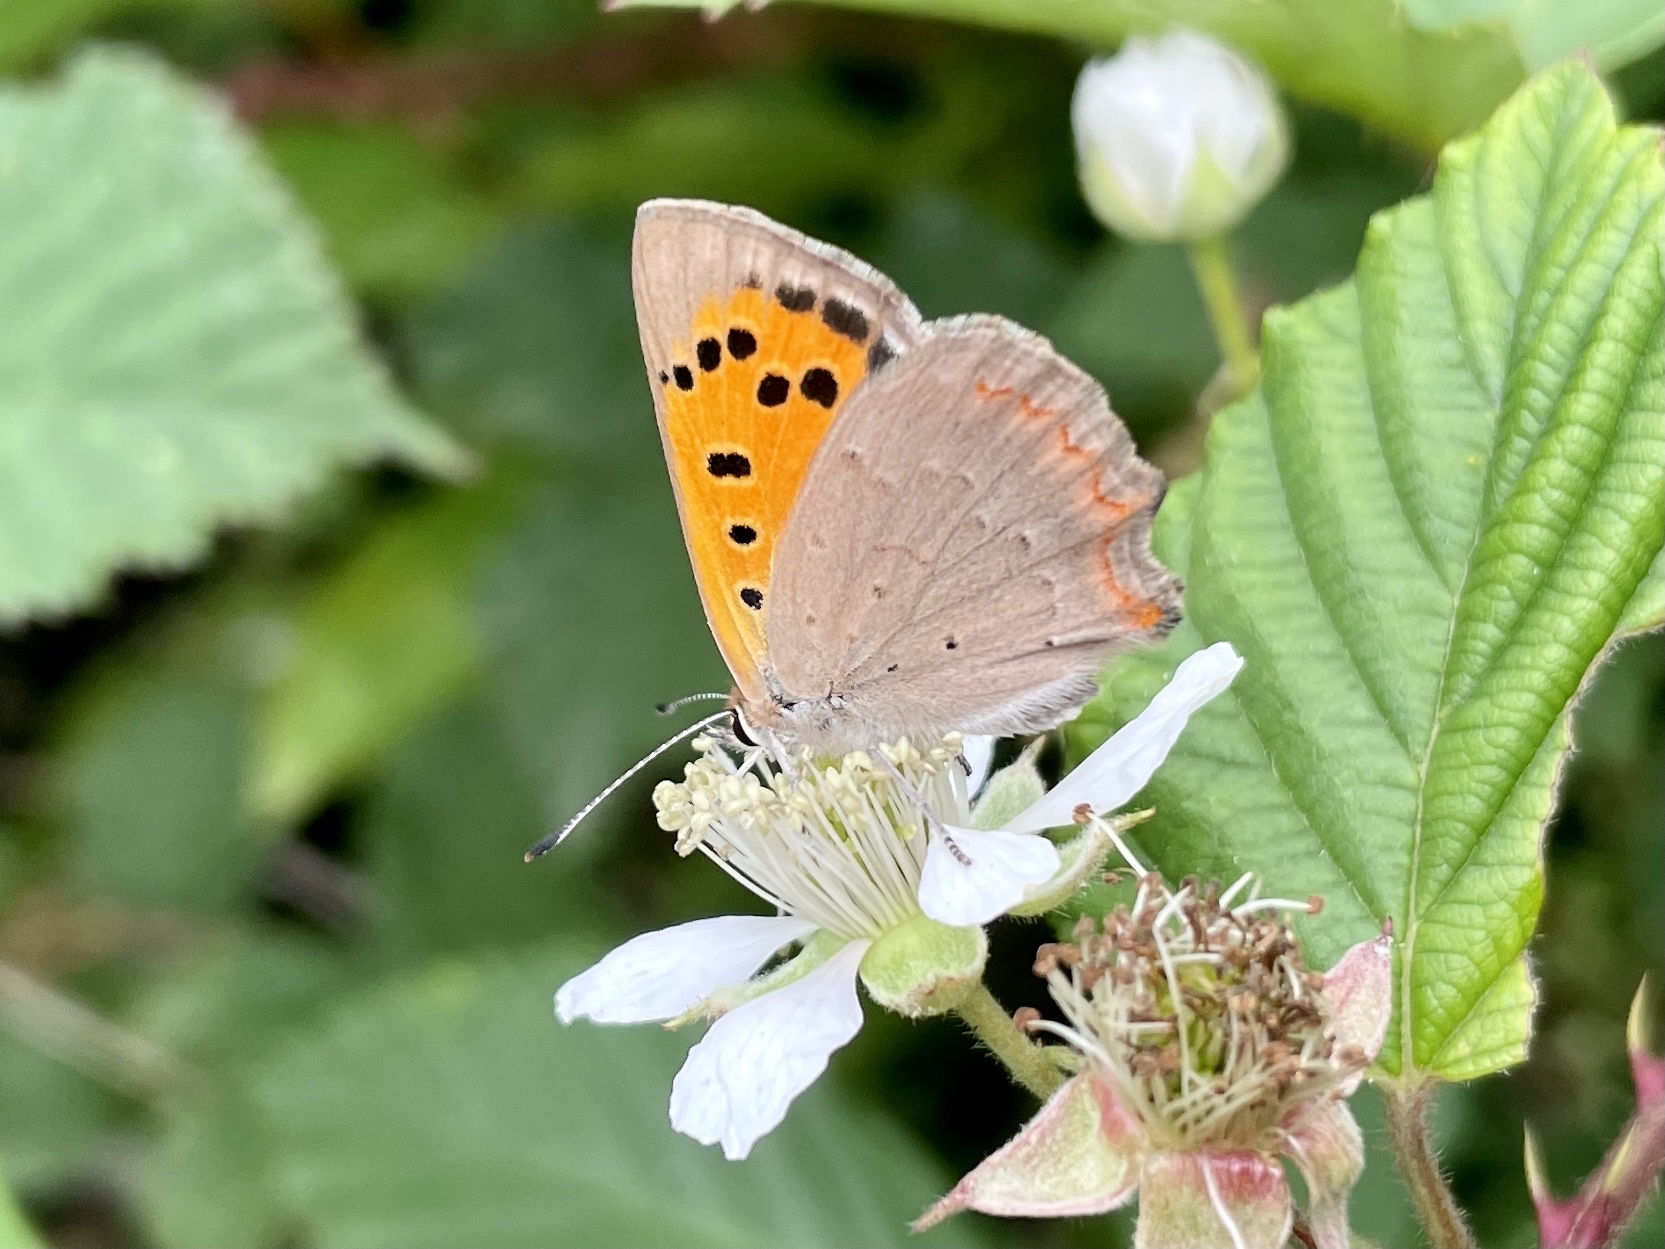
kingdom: Animalia
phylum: Arthropoda
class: Insecta
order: Lepidoptera
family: Lycaenidae
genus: Lycaena
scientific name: Lycaena phlaeas
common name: Small copper
